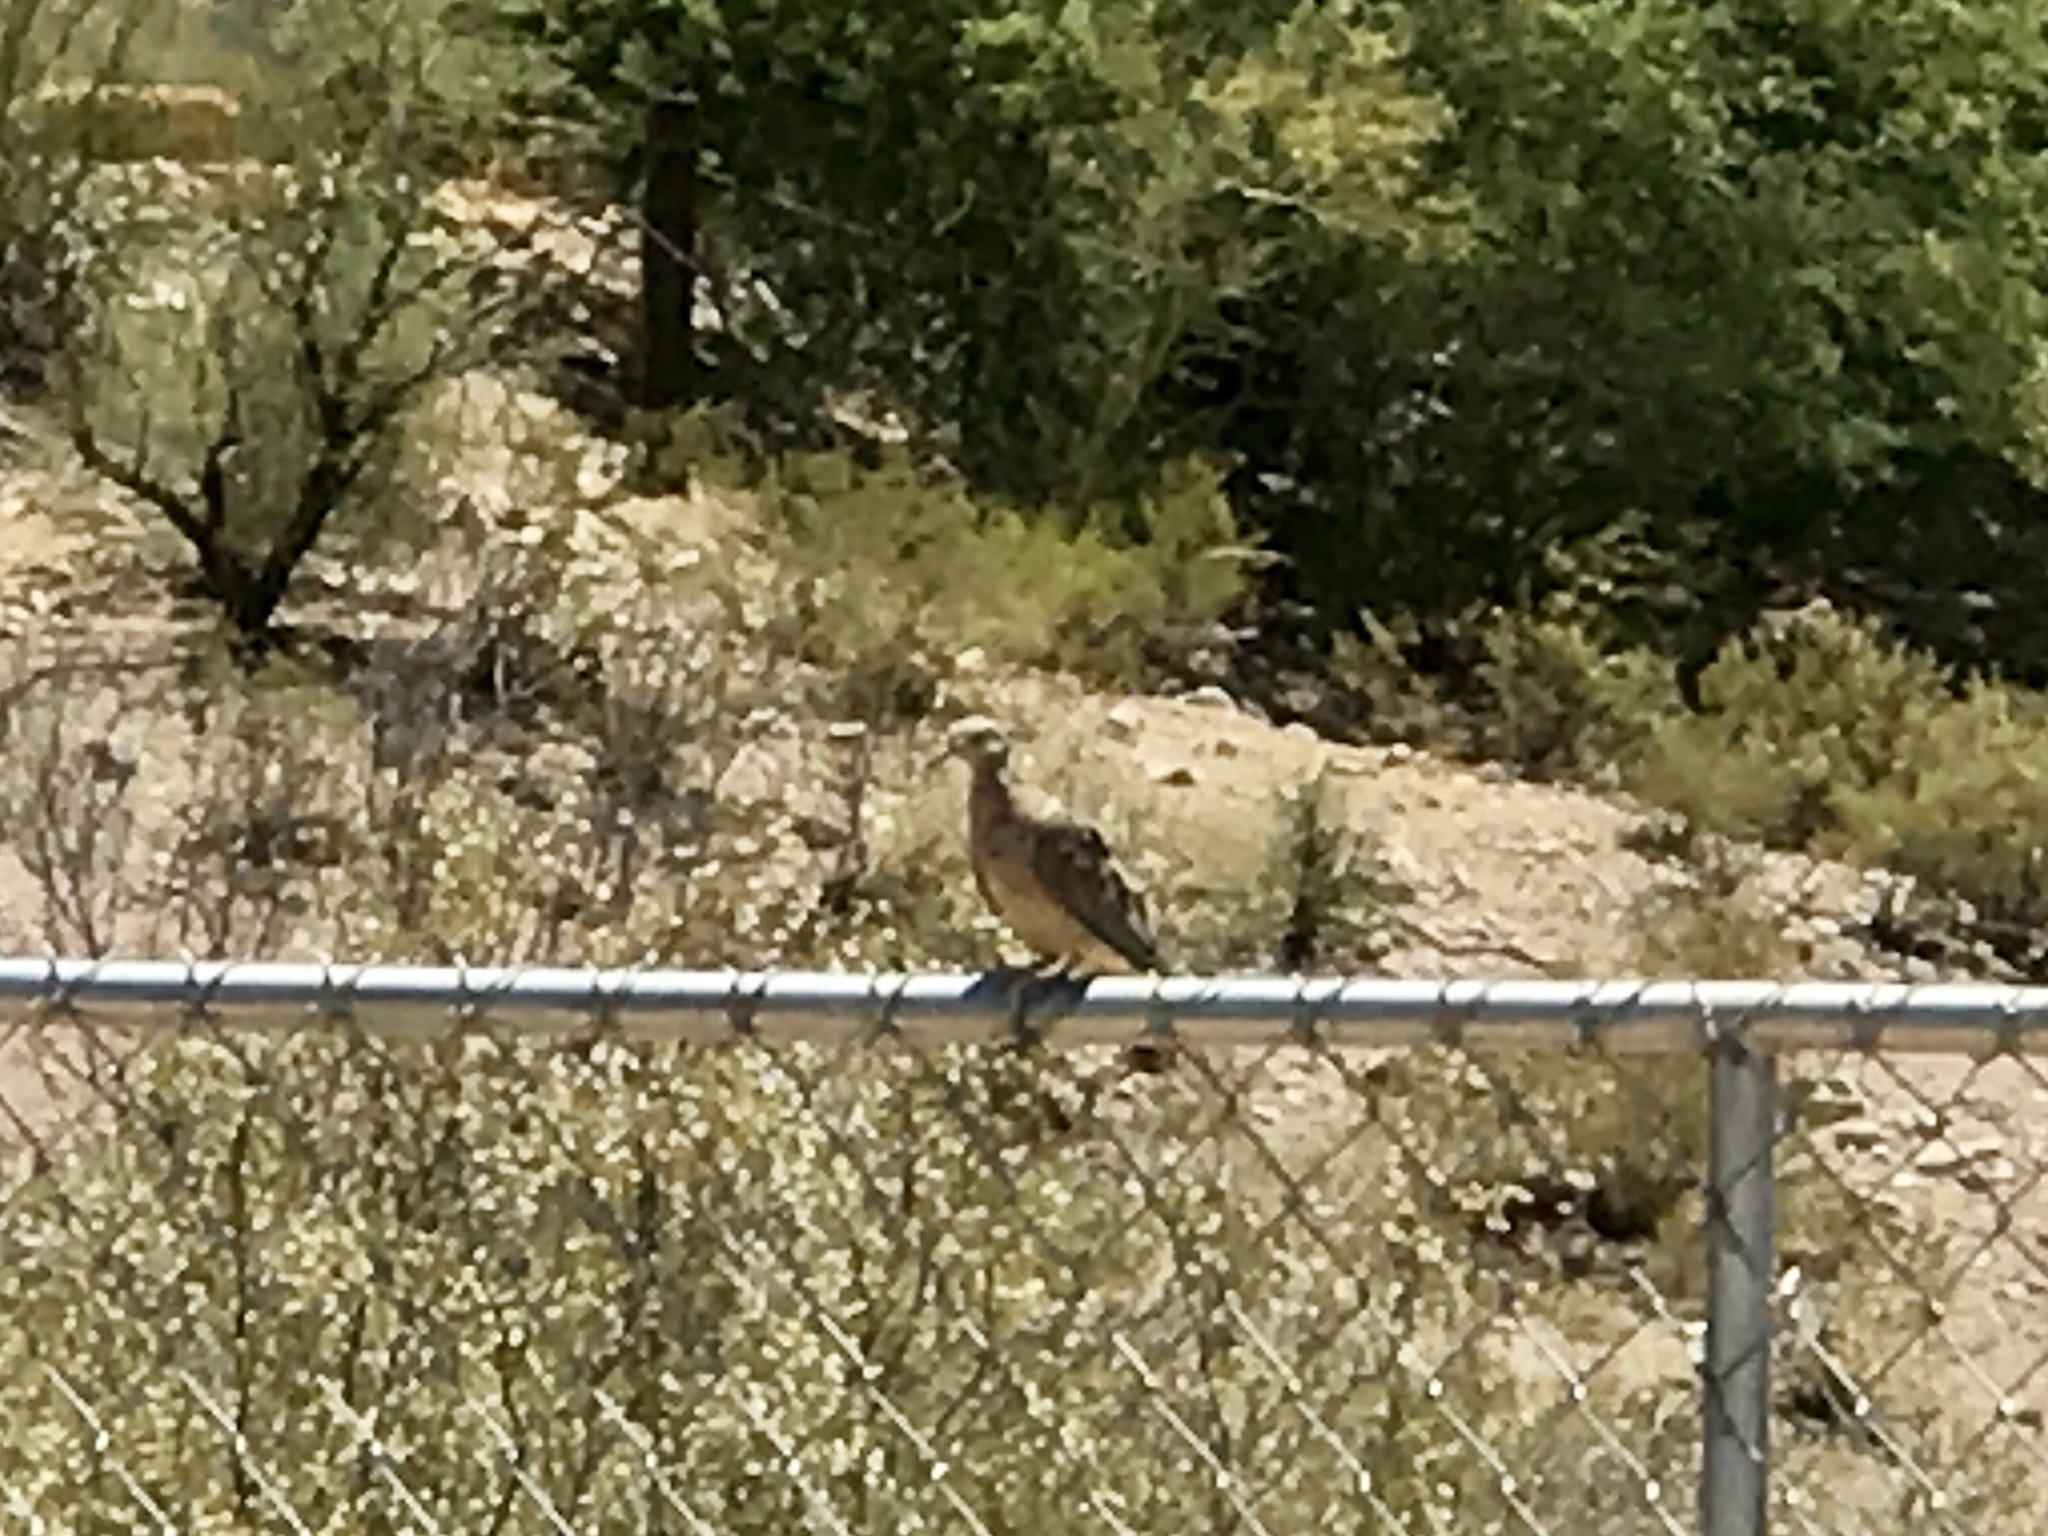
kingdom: Animalia
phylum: Chordata
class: Aves
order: Columbiformes
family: Columbidae
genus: Zenaida
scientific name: Zenaida macroura
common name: Mourning dove
